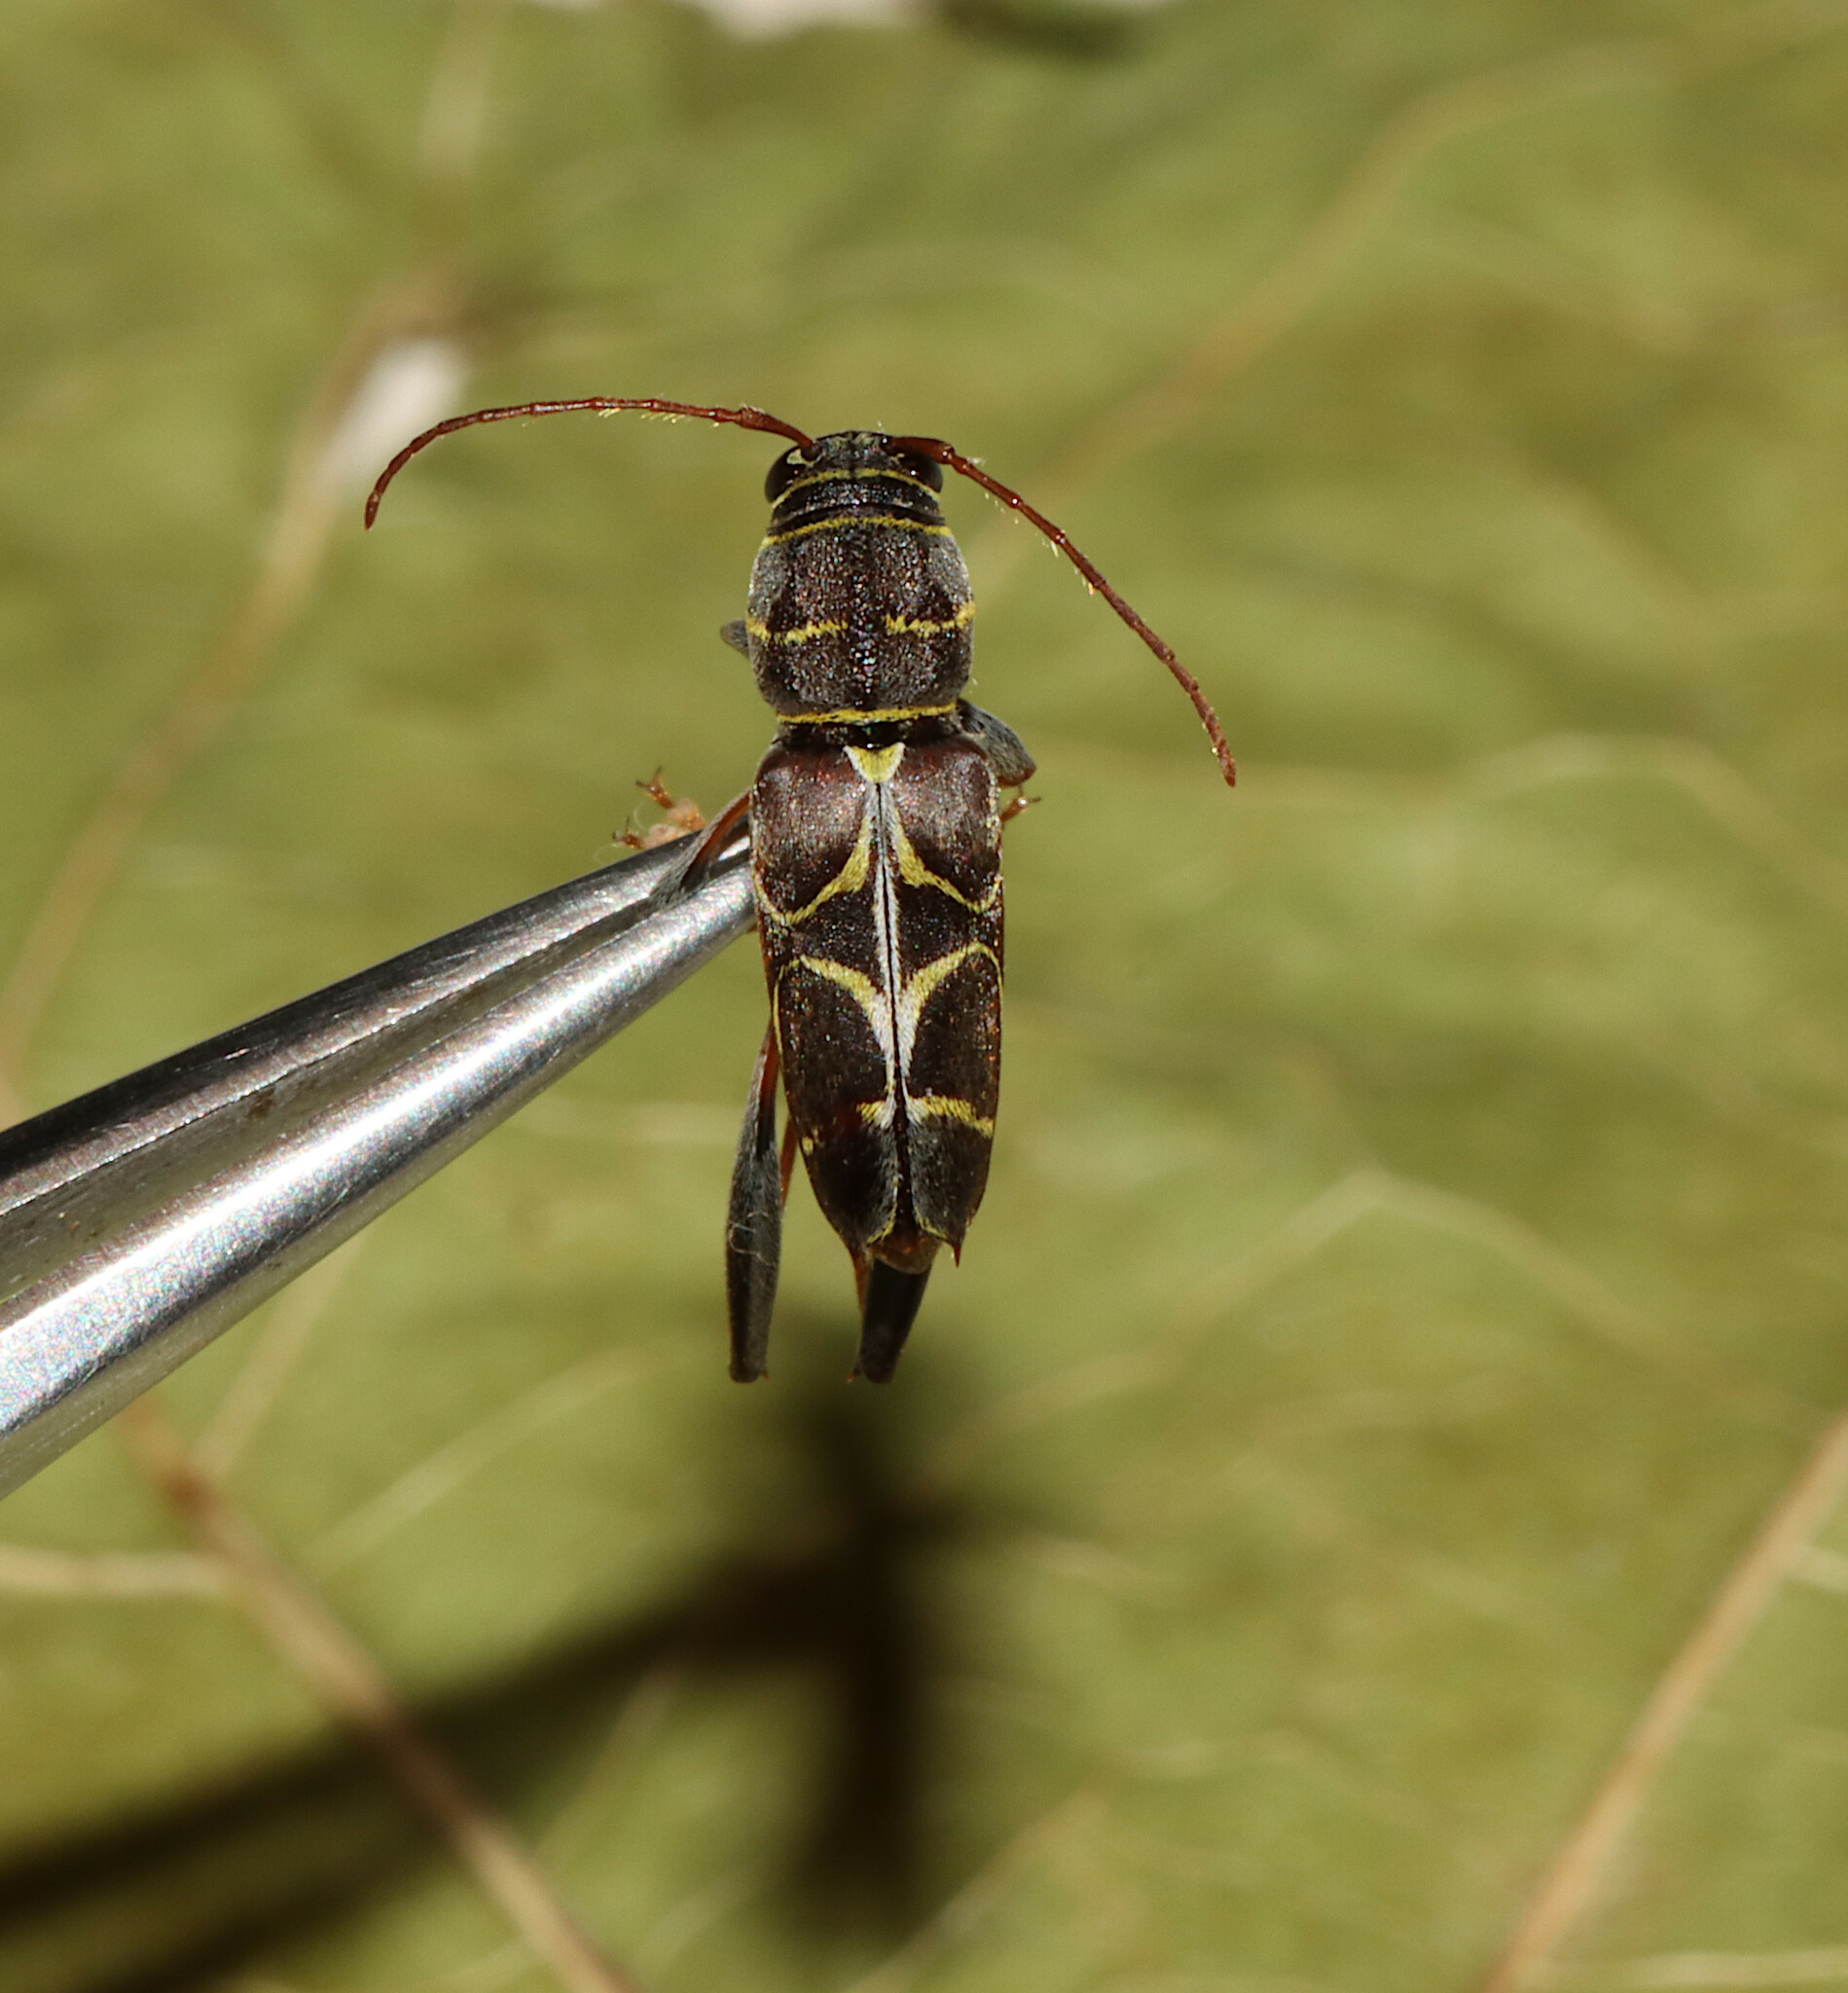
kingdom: Animalia
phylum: Arthropoda
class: Insecta
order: Coleoptera
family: Cerambycidae
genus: Neoclytus
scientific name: Neoclytus scutellaris
